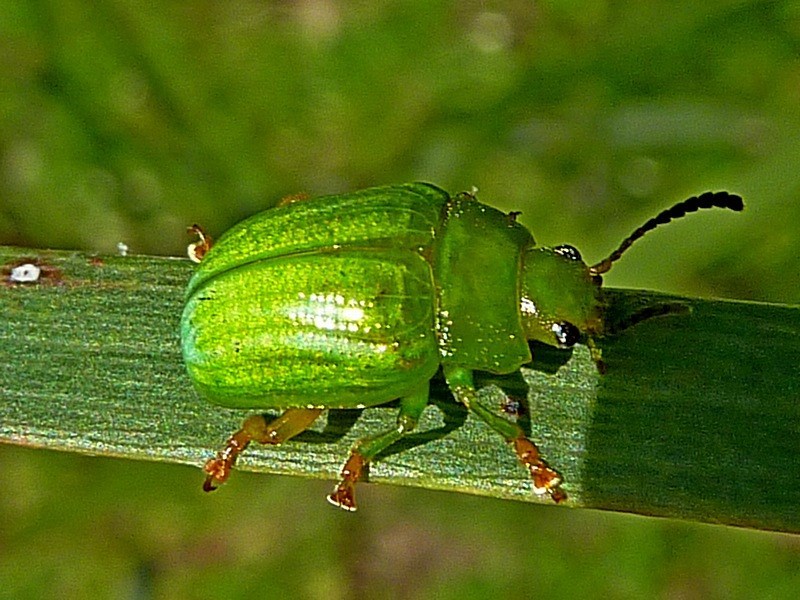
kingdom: Animalia
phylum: Arthropoda
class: Insecta
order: Coleoptera
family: Chrysomelidae
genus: Calomela
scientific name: Calomela
